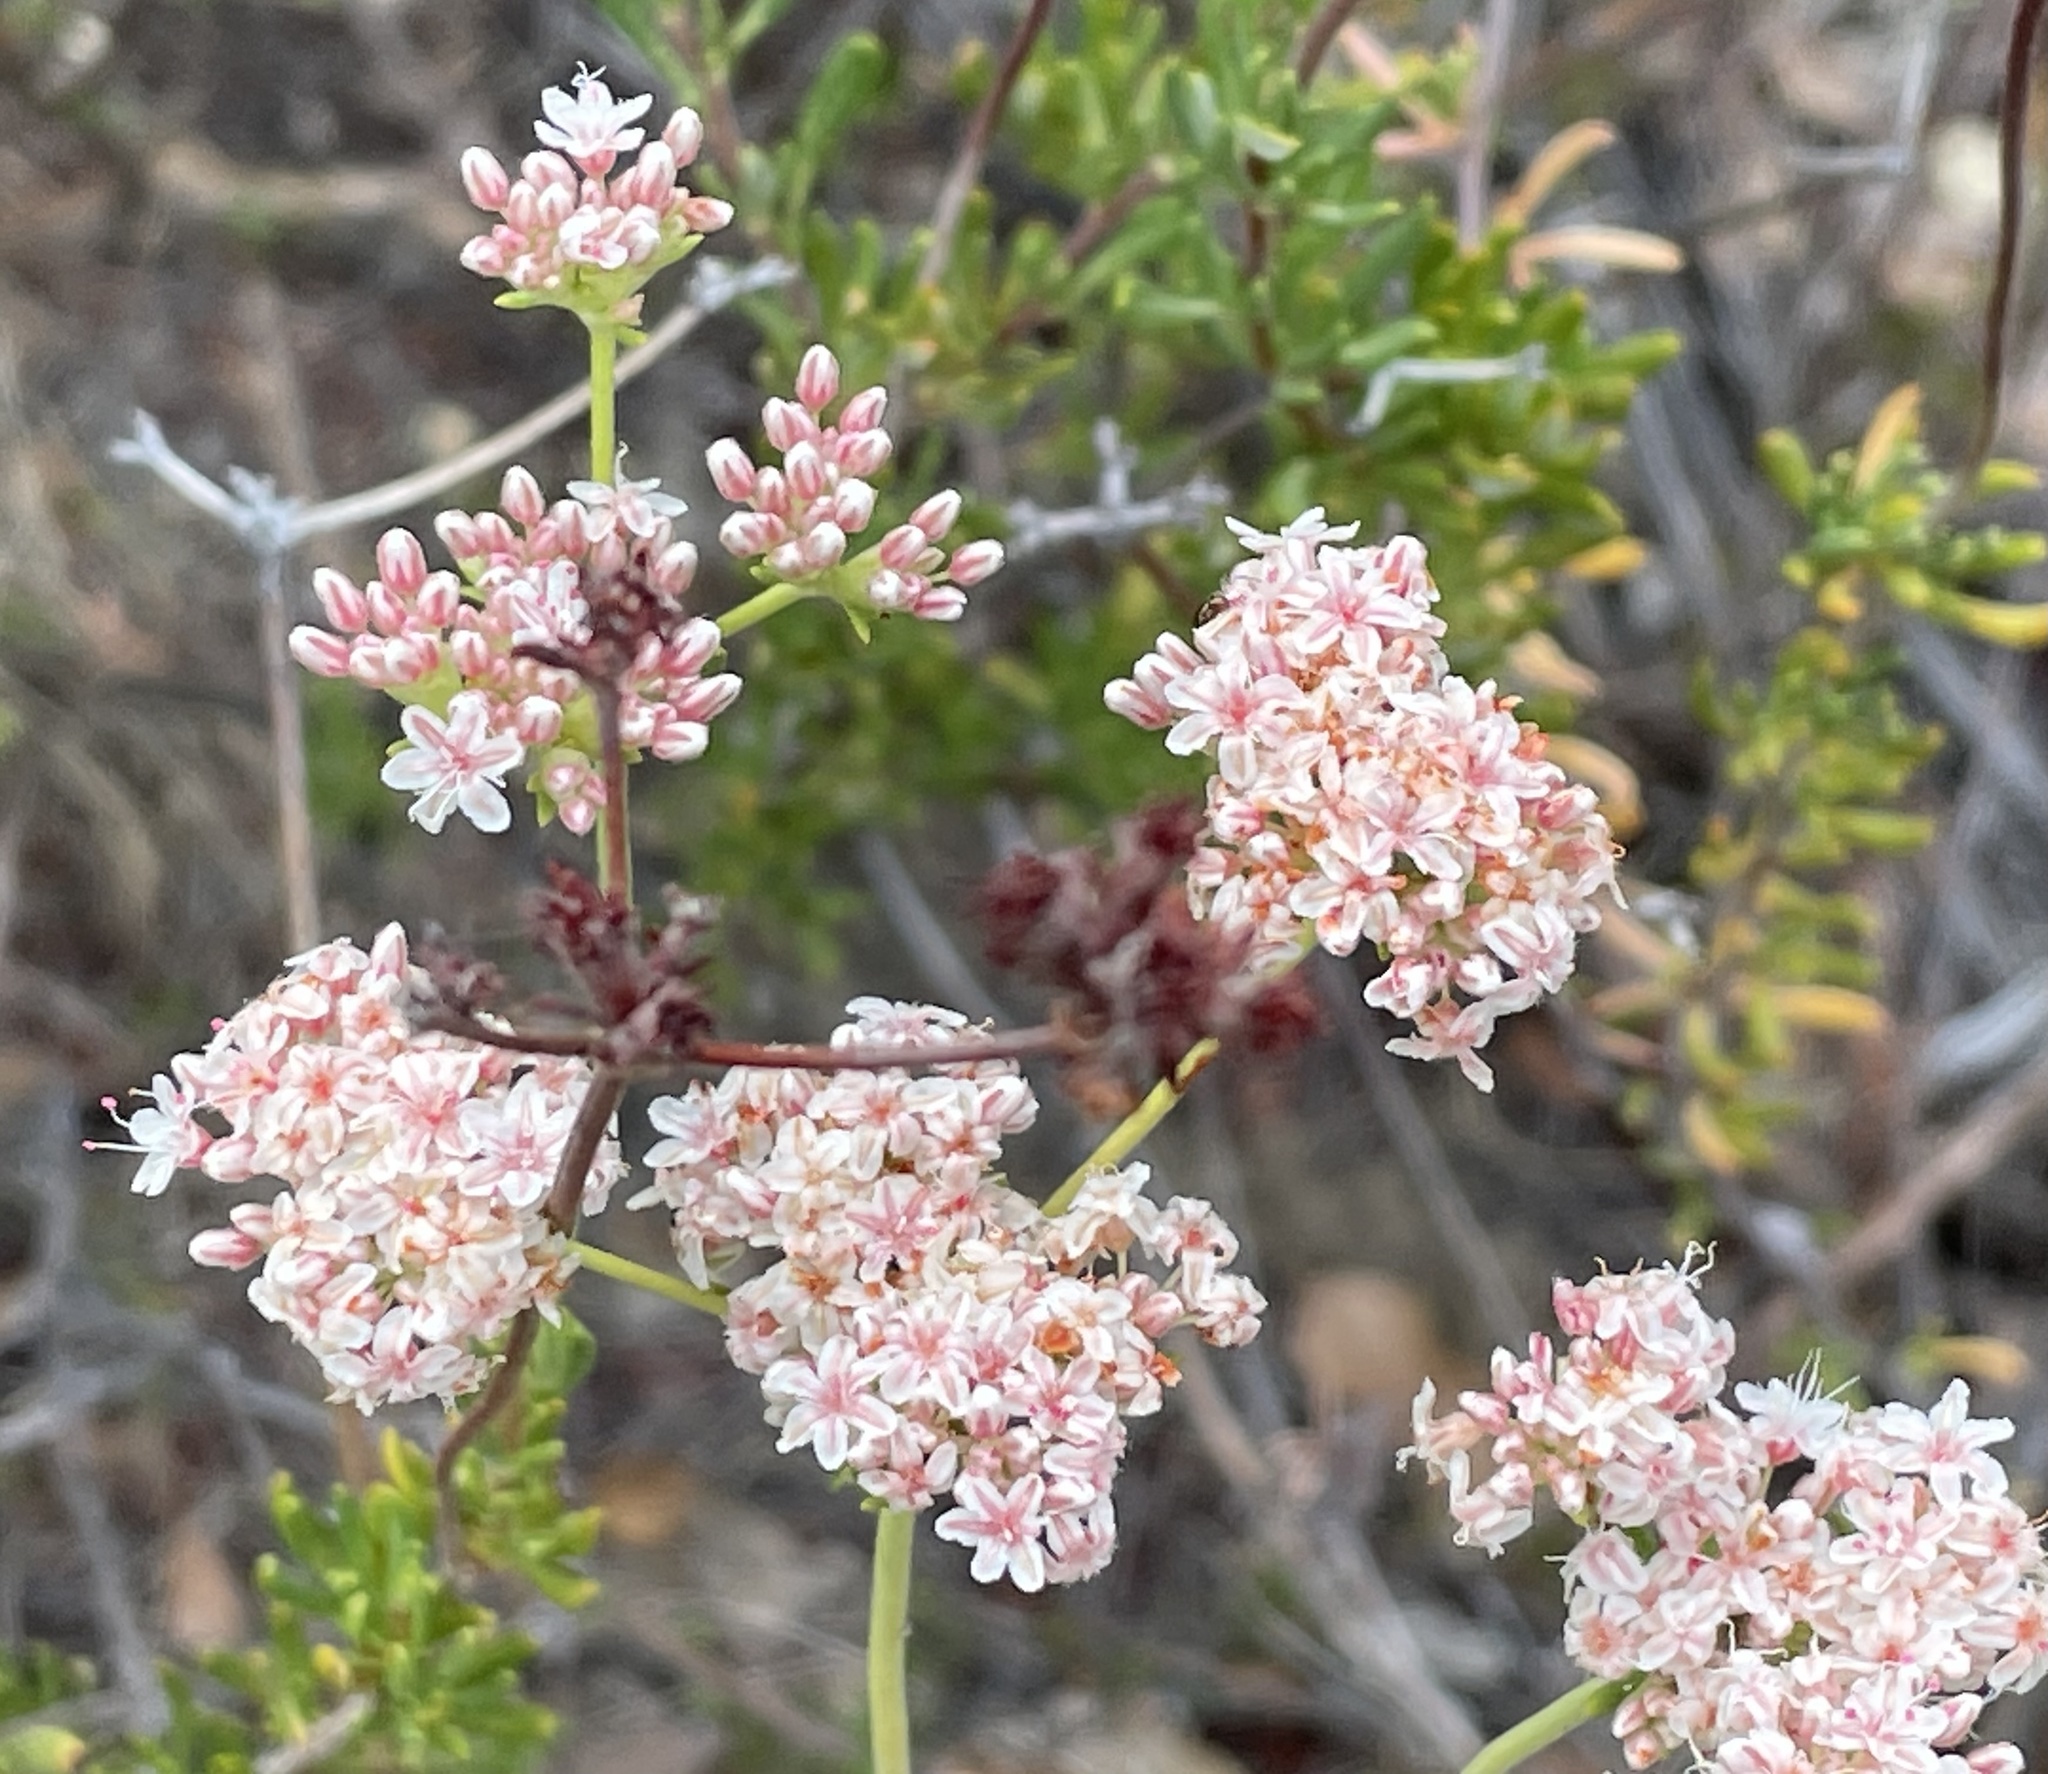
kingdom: Plantae
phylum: Tracheophyta
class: Magnoliopsida
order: Caryophyllales
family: Polygonaceae
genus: Eriogonum
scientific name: Eriogonum fasciculatum
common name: California wild buckwheat
